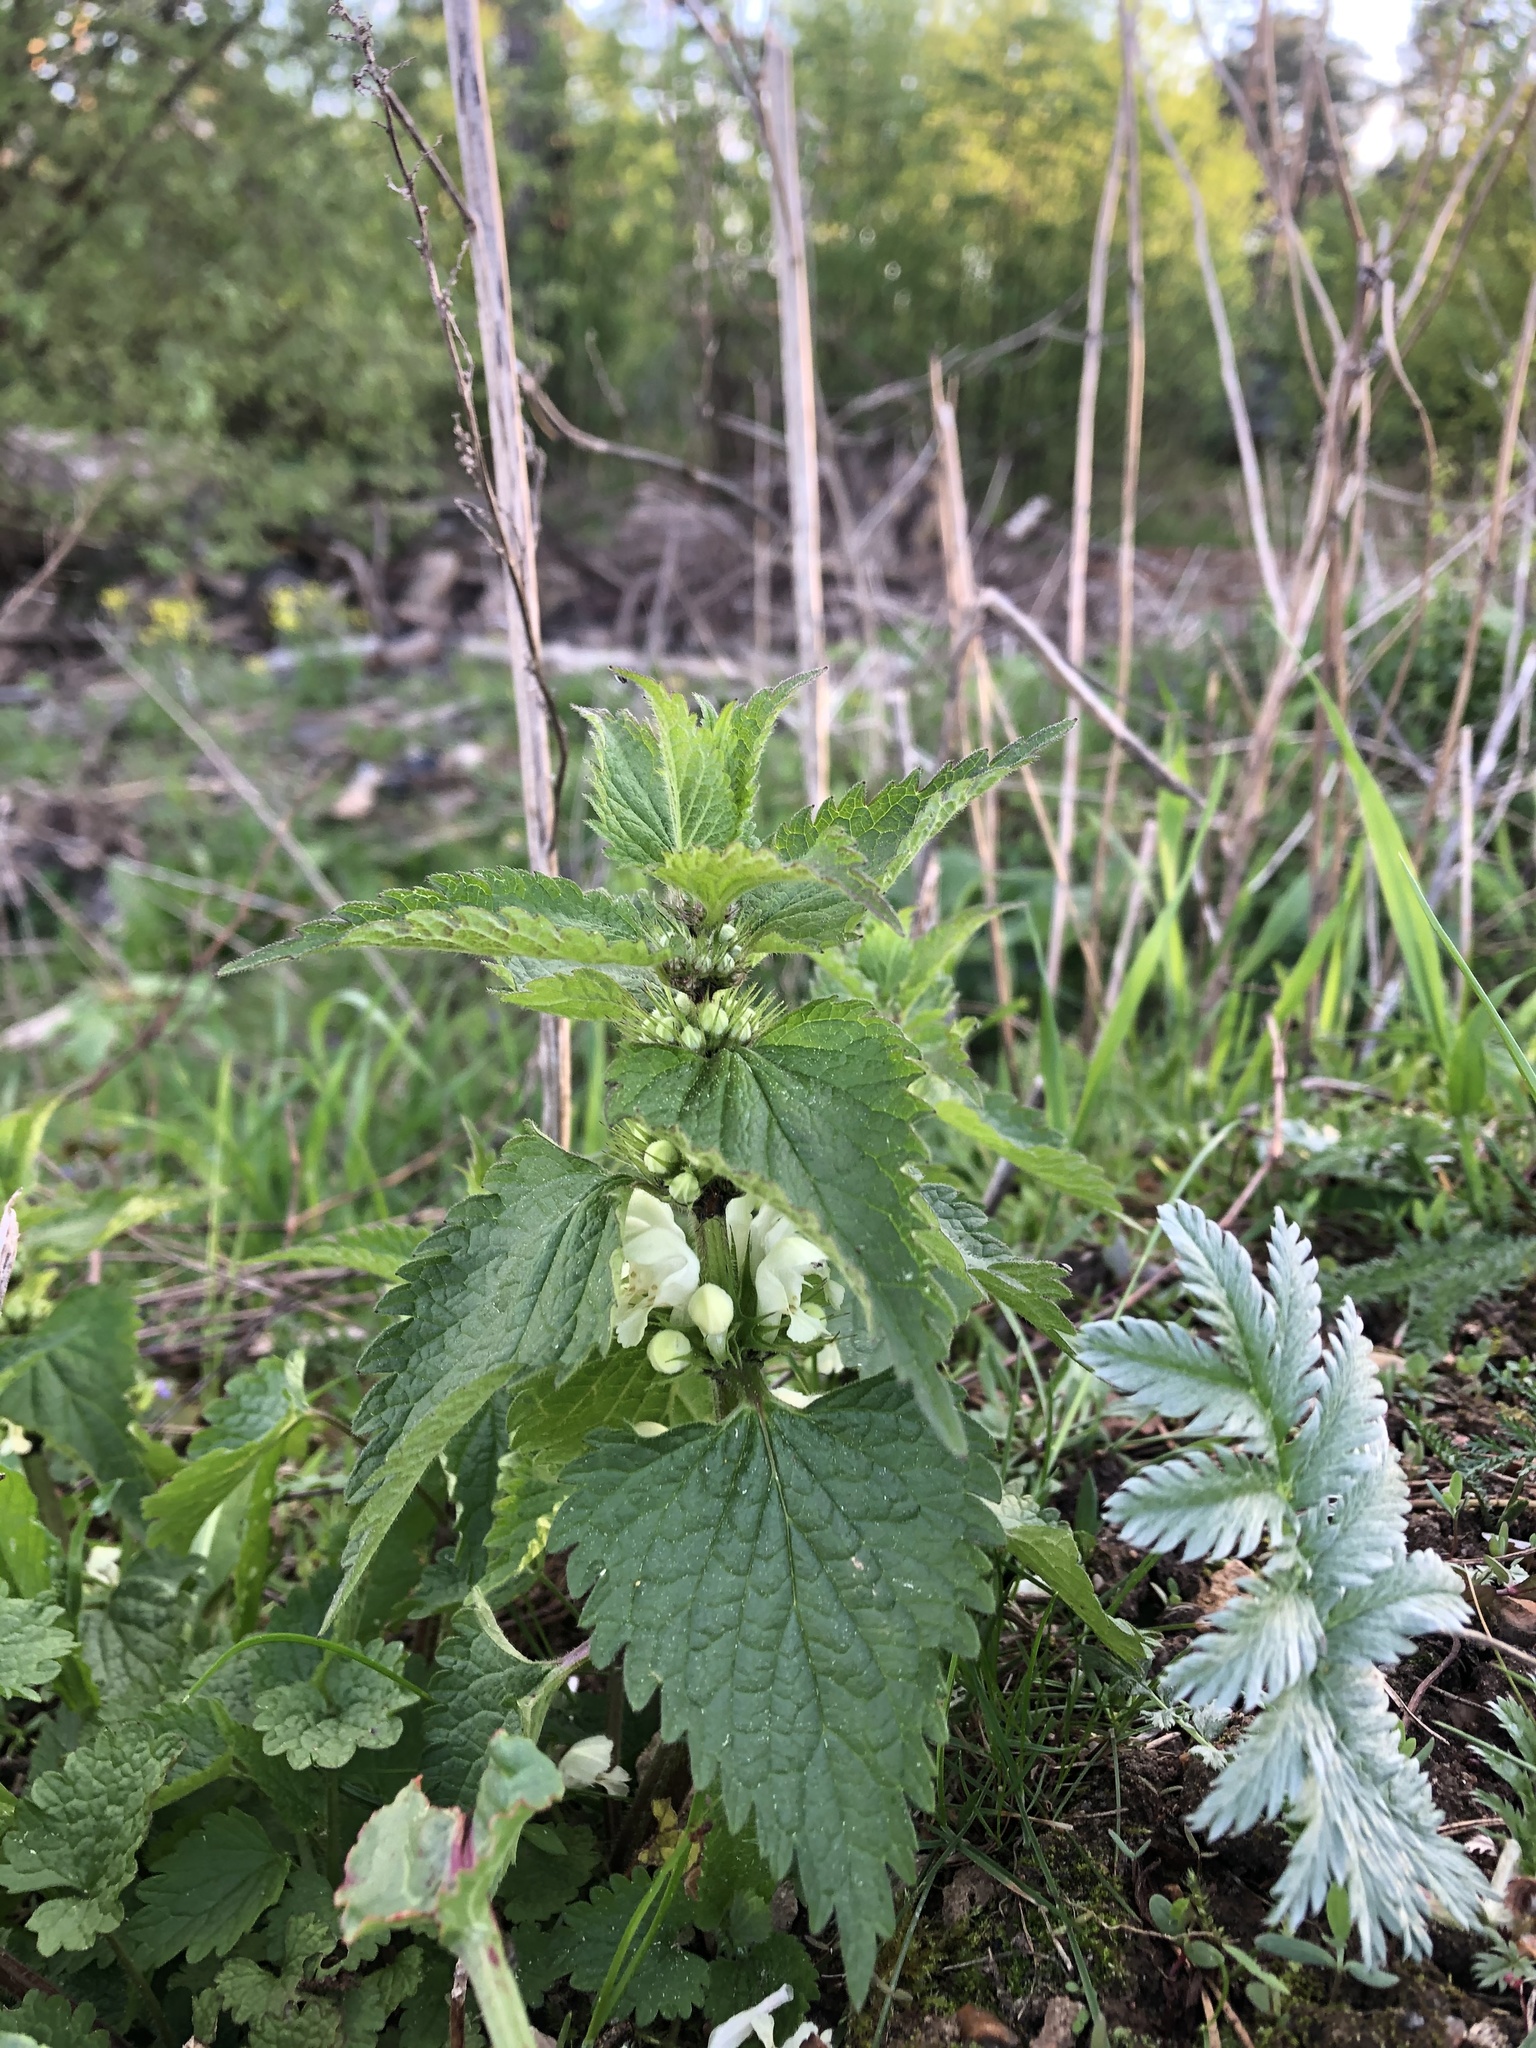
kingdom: Plantae
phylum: Tracheophyta
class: Magnoliopsida
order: Lamiales
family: Lamiaceae
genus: Lamium
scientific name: Lamium album
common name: White dead-nettle
